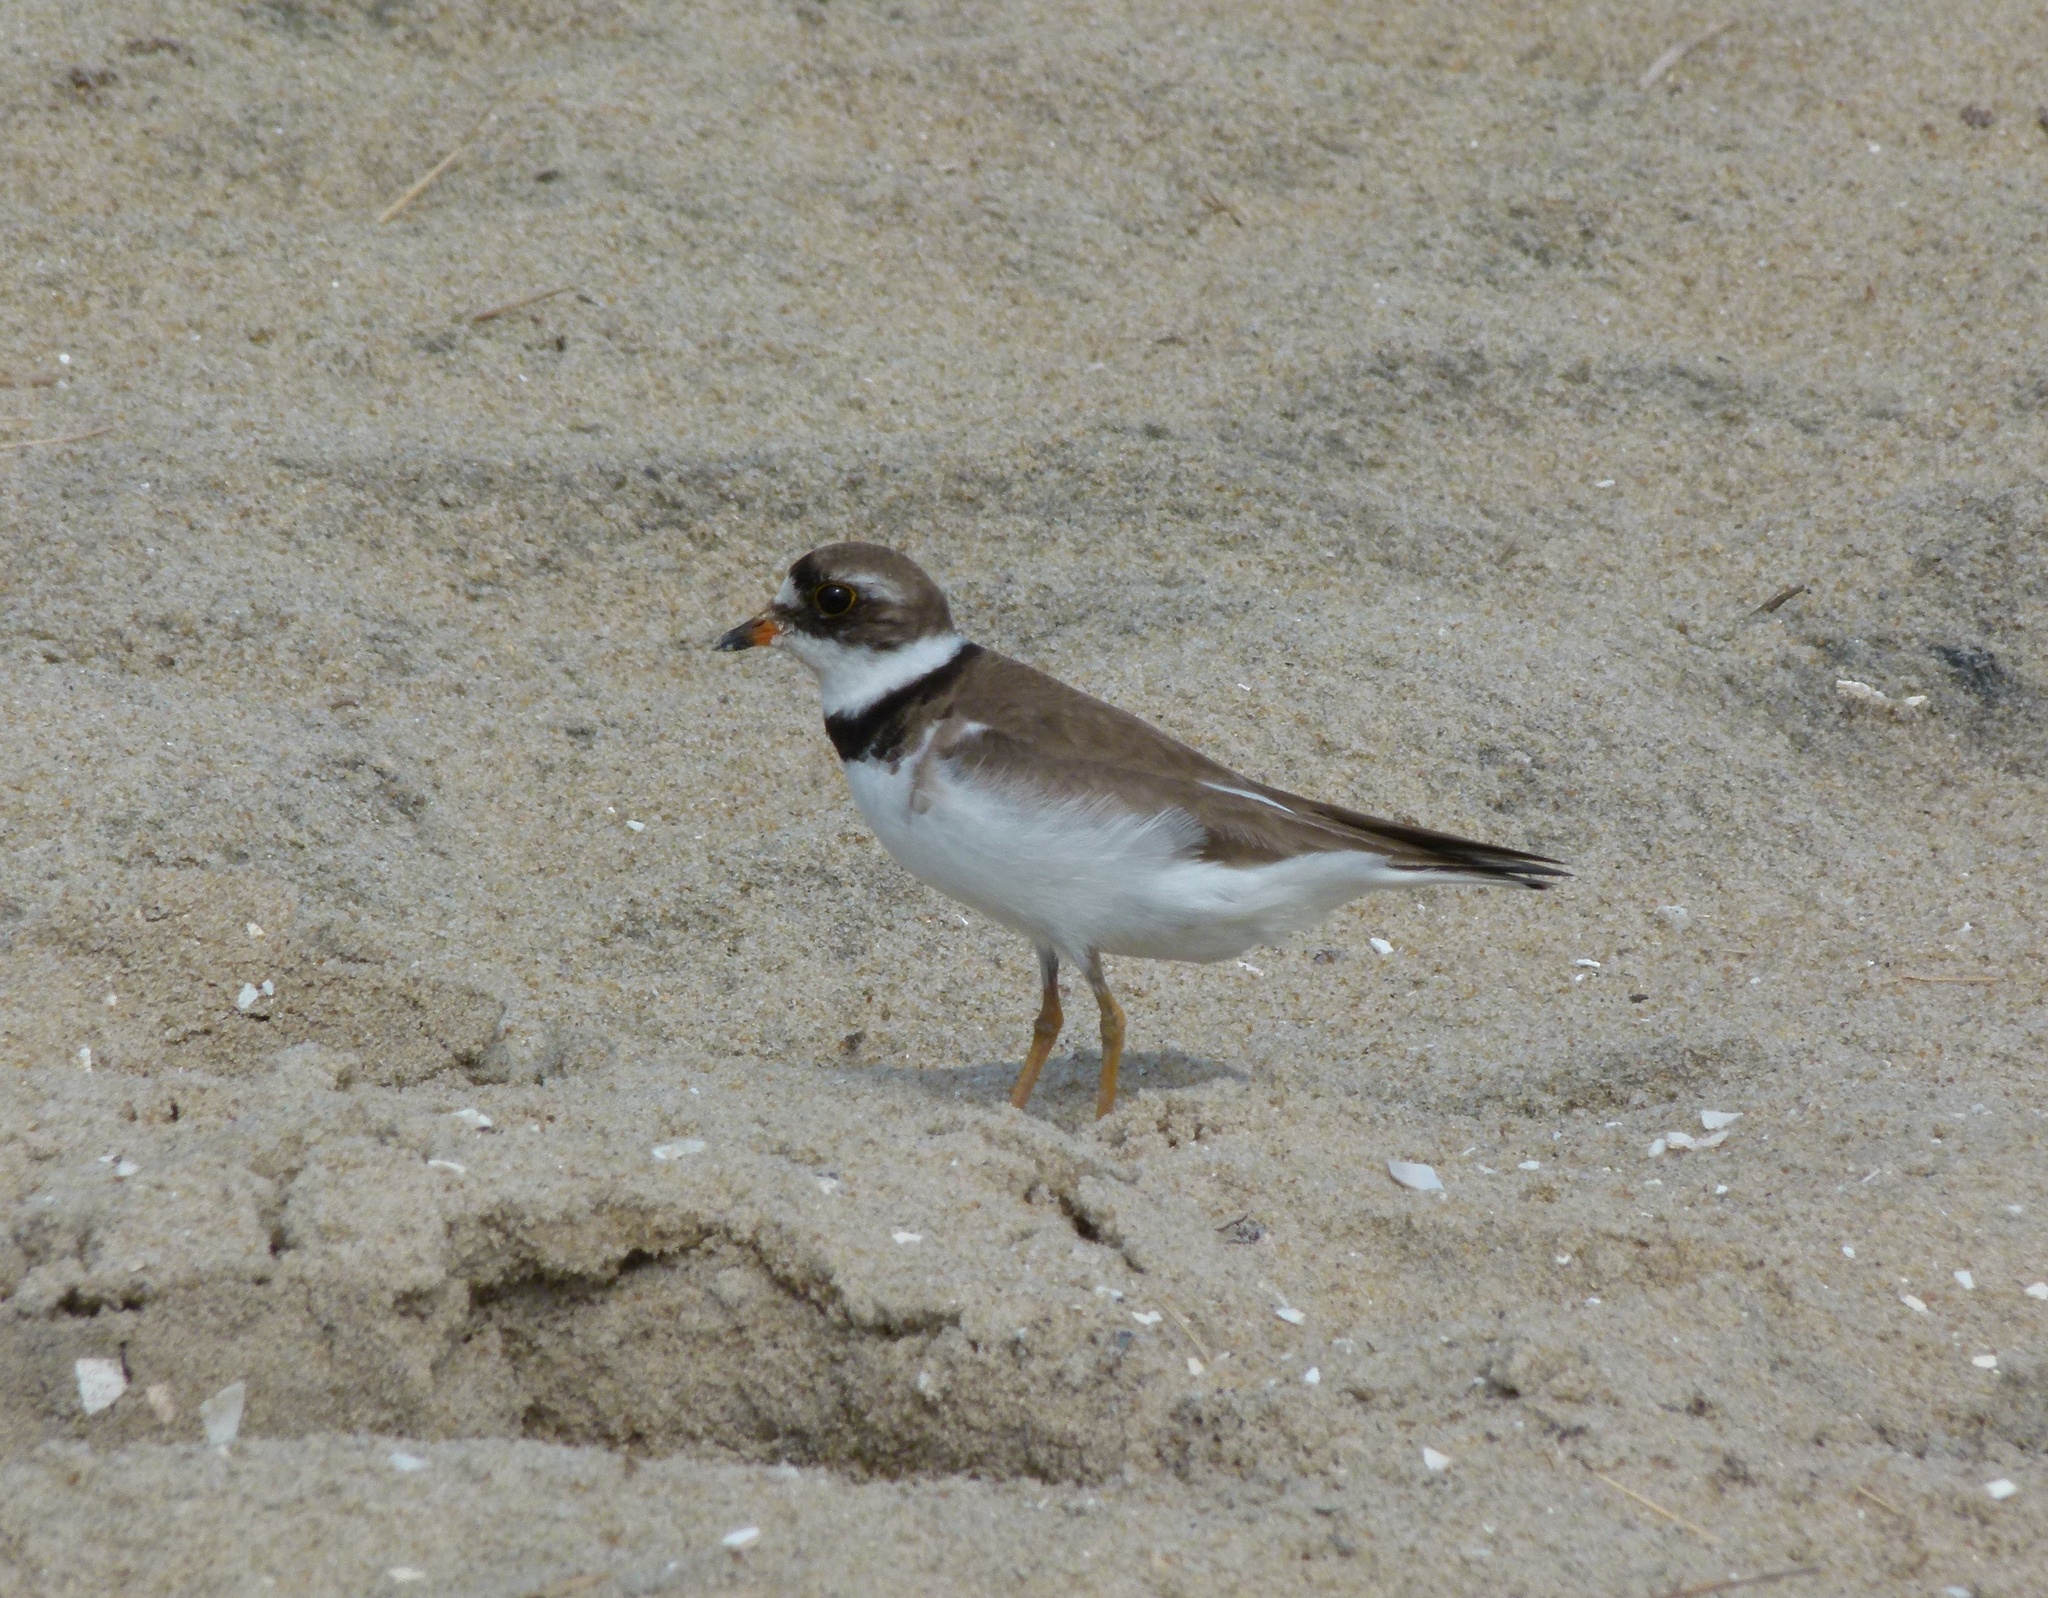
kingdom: Animalia
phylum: Chordata
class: Aves
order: Charadriiformes
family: Charadriidae
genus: Charadrius
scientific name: Charadrius semipalmatus
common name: Semipalmated plover
